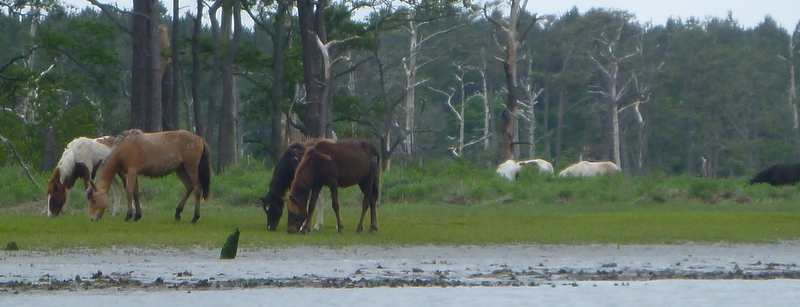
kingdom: Animalia
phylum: Chordata
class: Mammalia
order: Perissodactyla
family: Equidae
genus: Equus
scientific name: Equus caballus
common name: Horse
